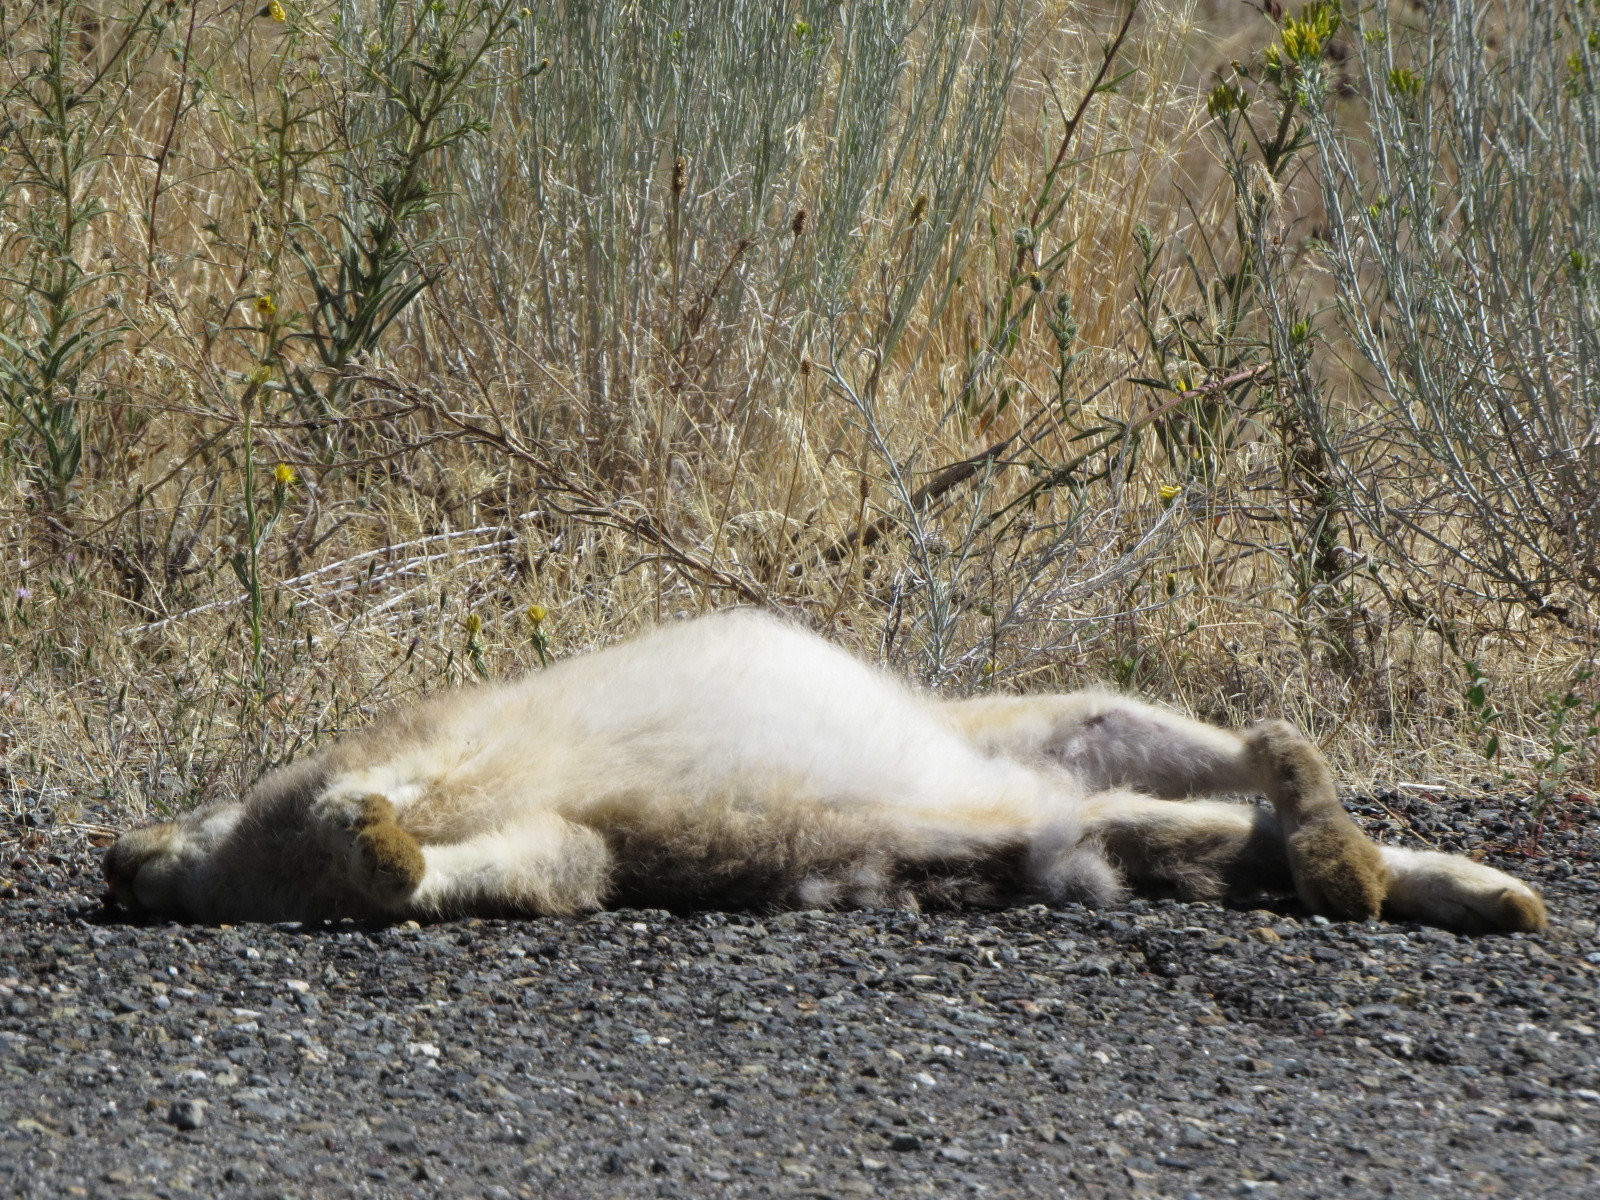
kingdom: Animalia
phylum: Chordata
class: Mammalia
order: Lagomorpha
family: Leporidae
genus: Lepus
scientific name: Lepus californicus
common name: Black-tailed jackrabbit
